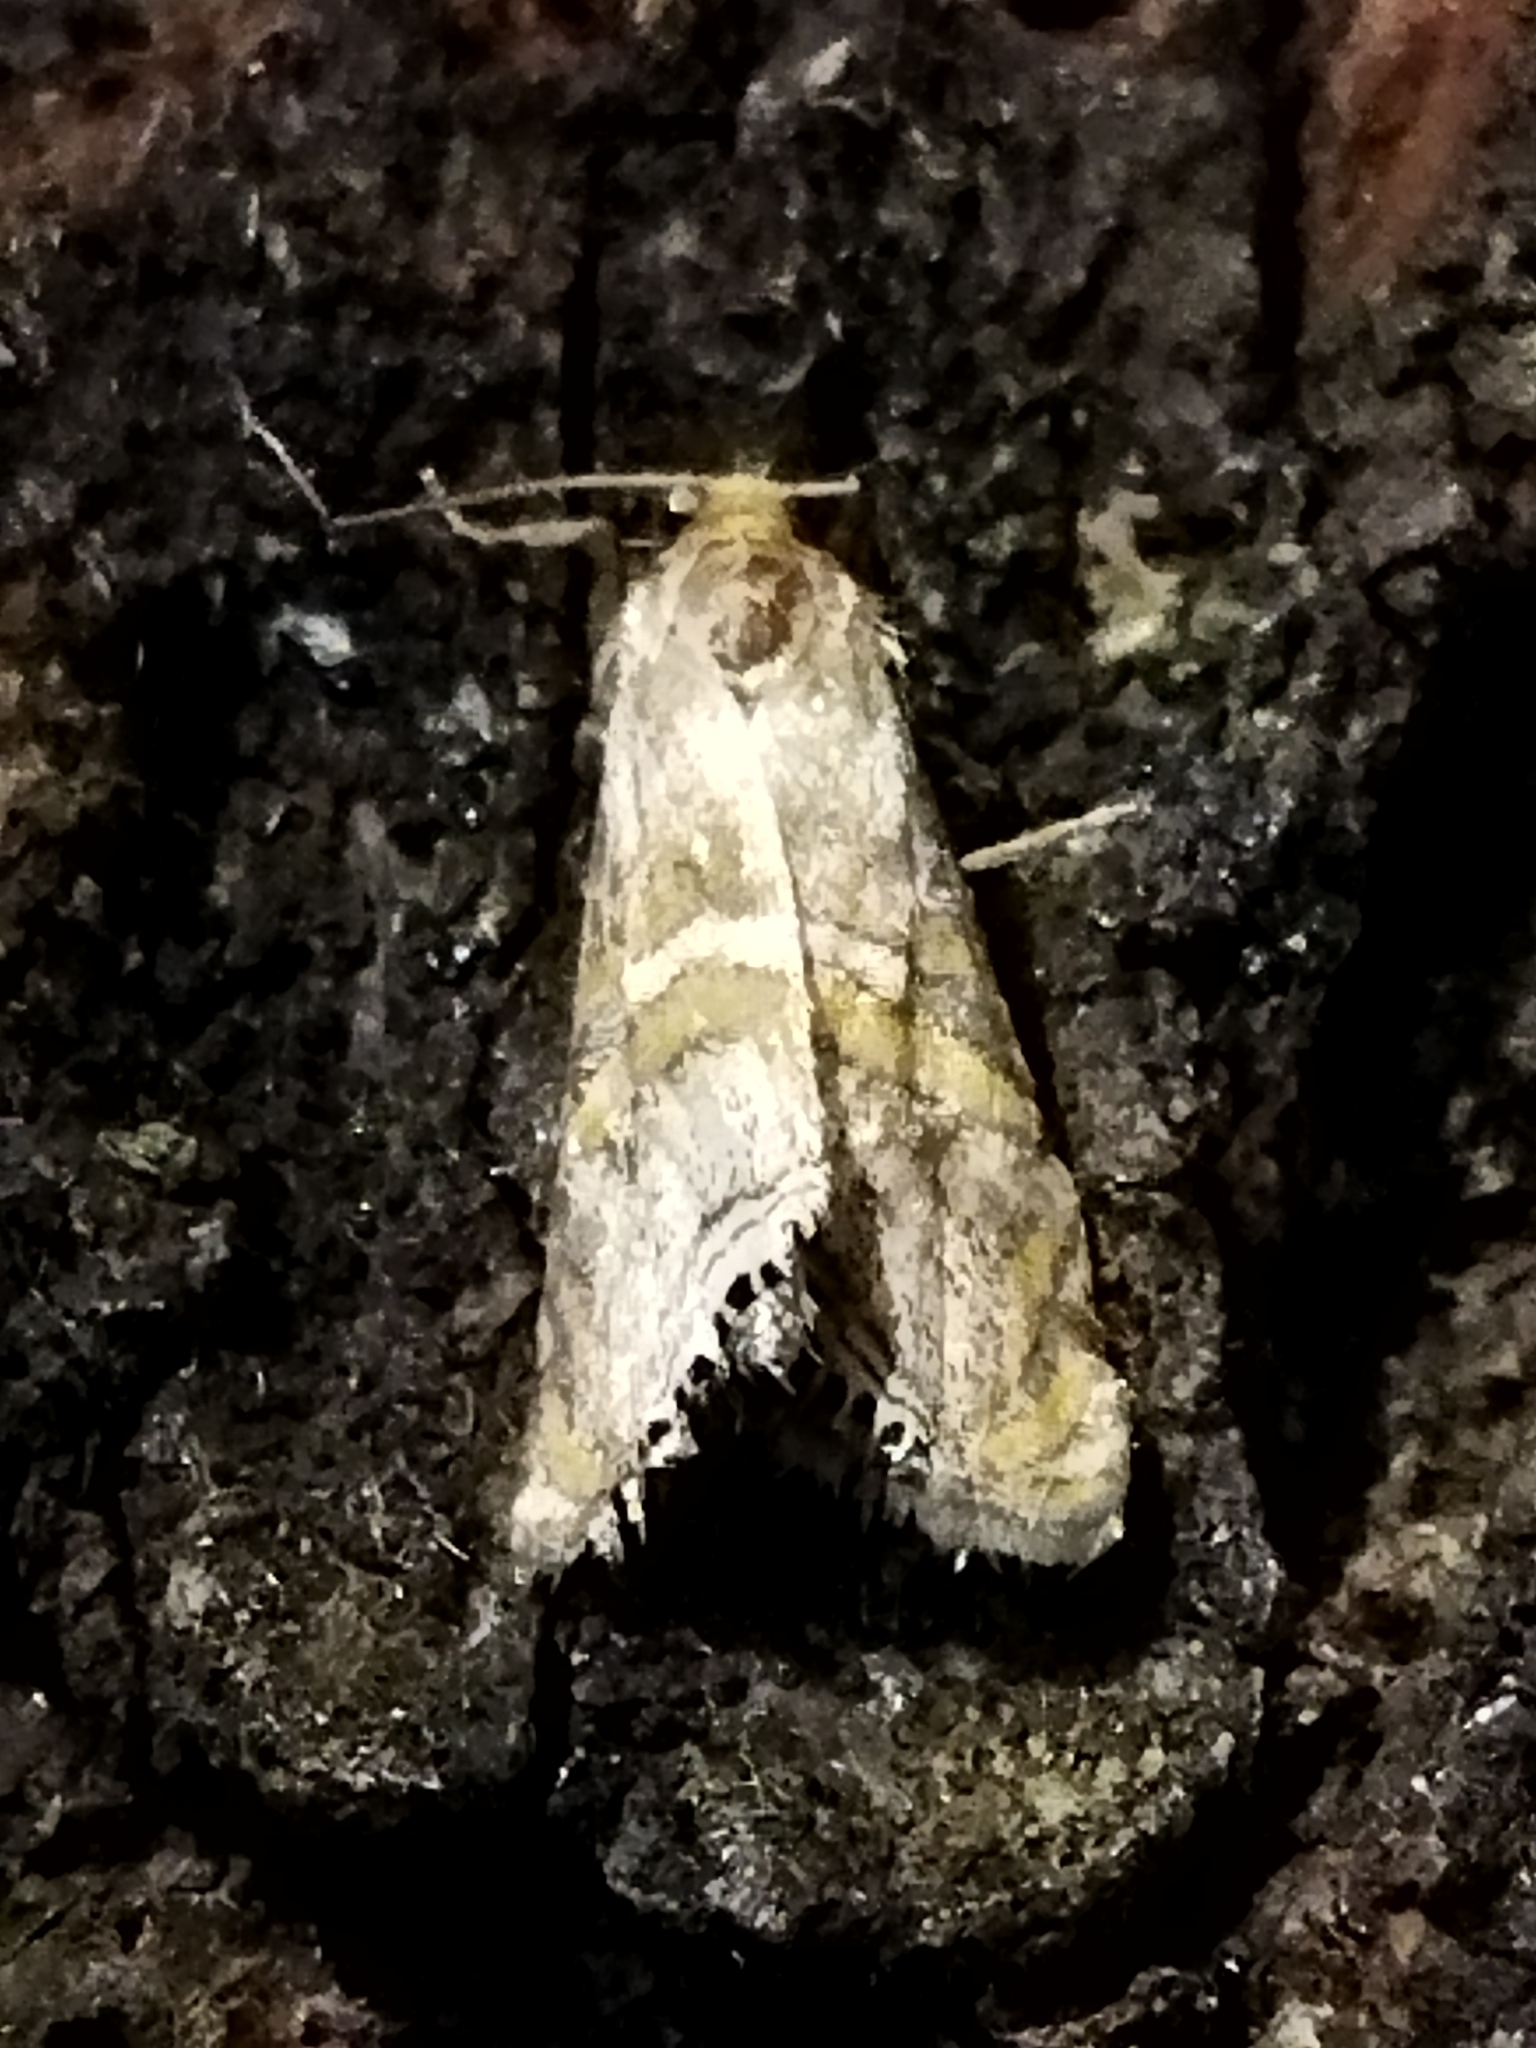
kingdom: Animalia
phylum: Arthropoda
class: Insecta
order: Lepidoptera
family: Crambidae
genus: Euchromius
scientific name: Euchromius bella
